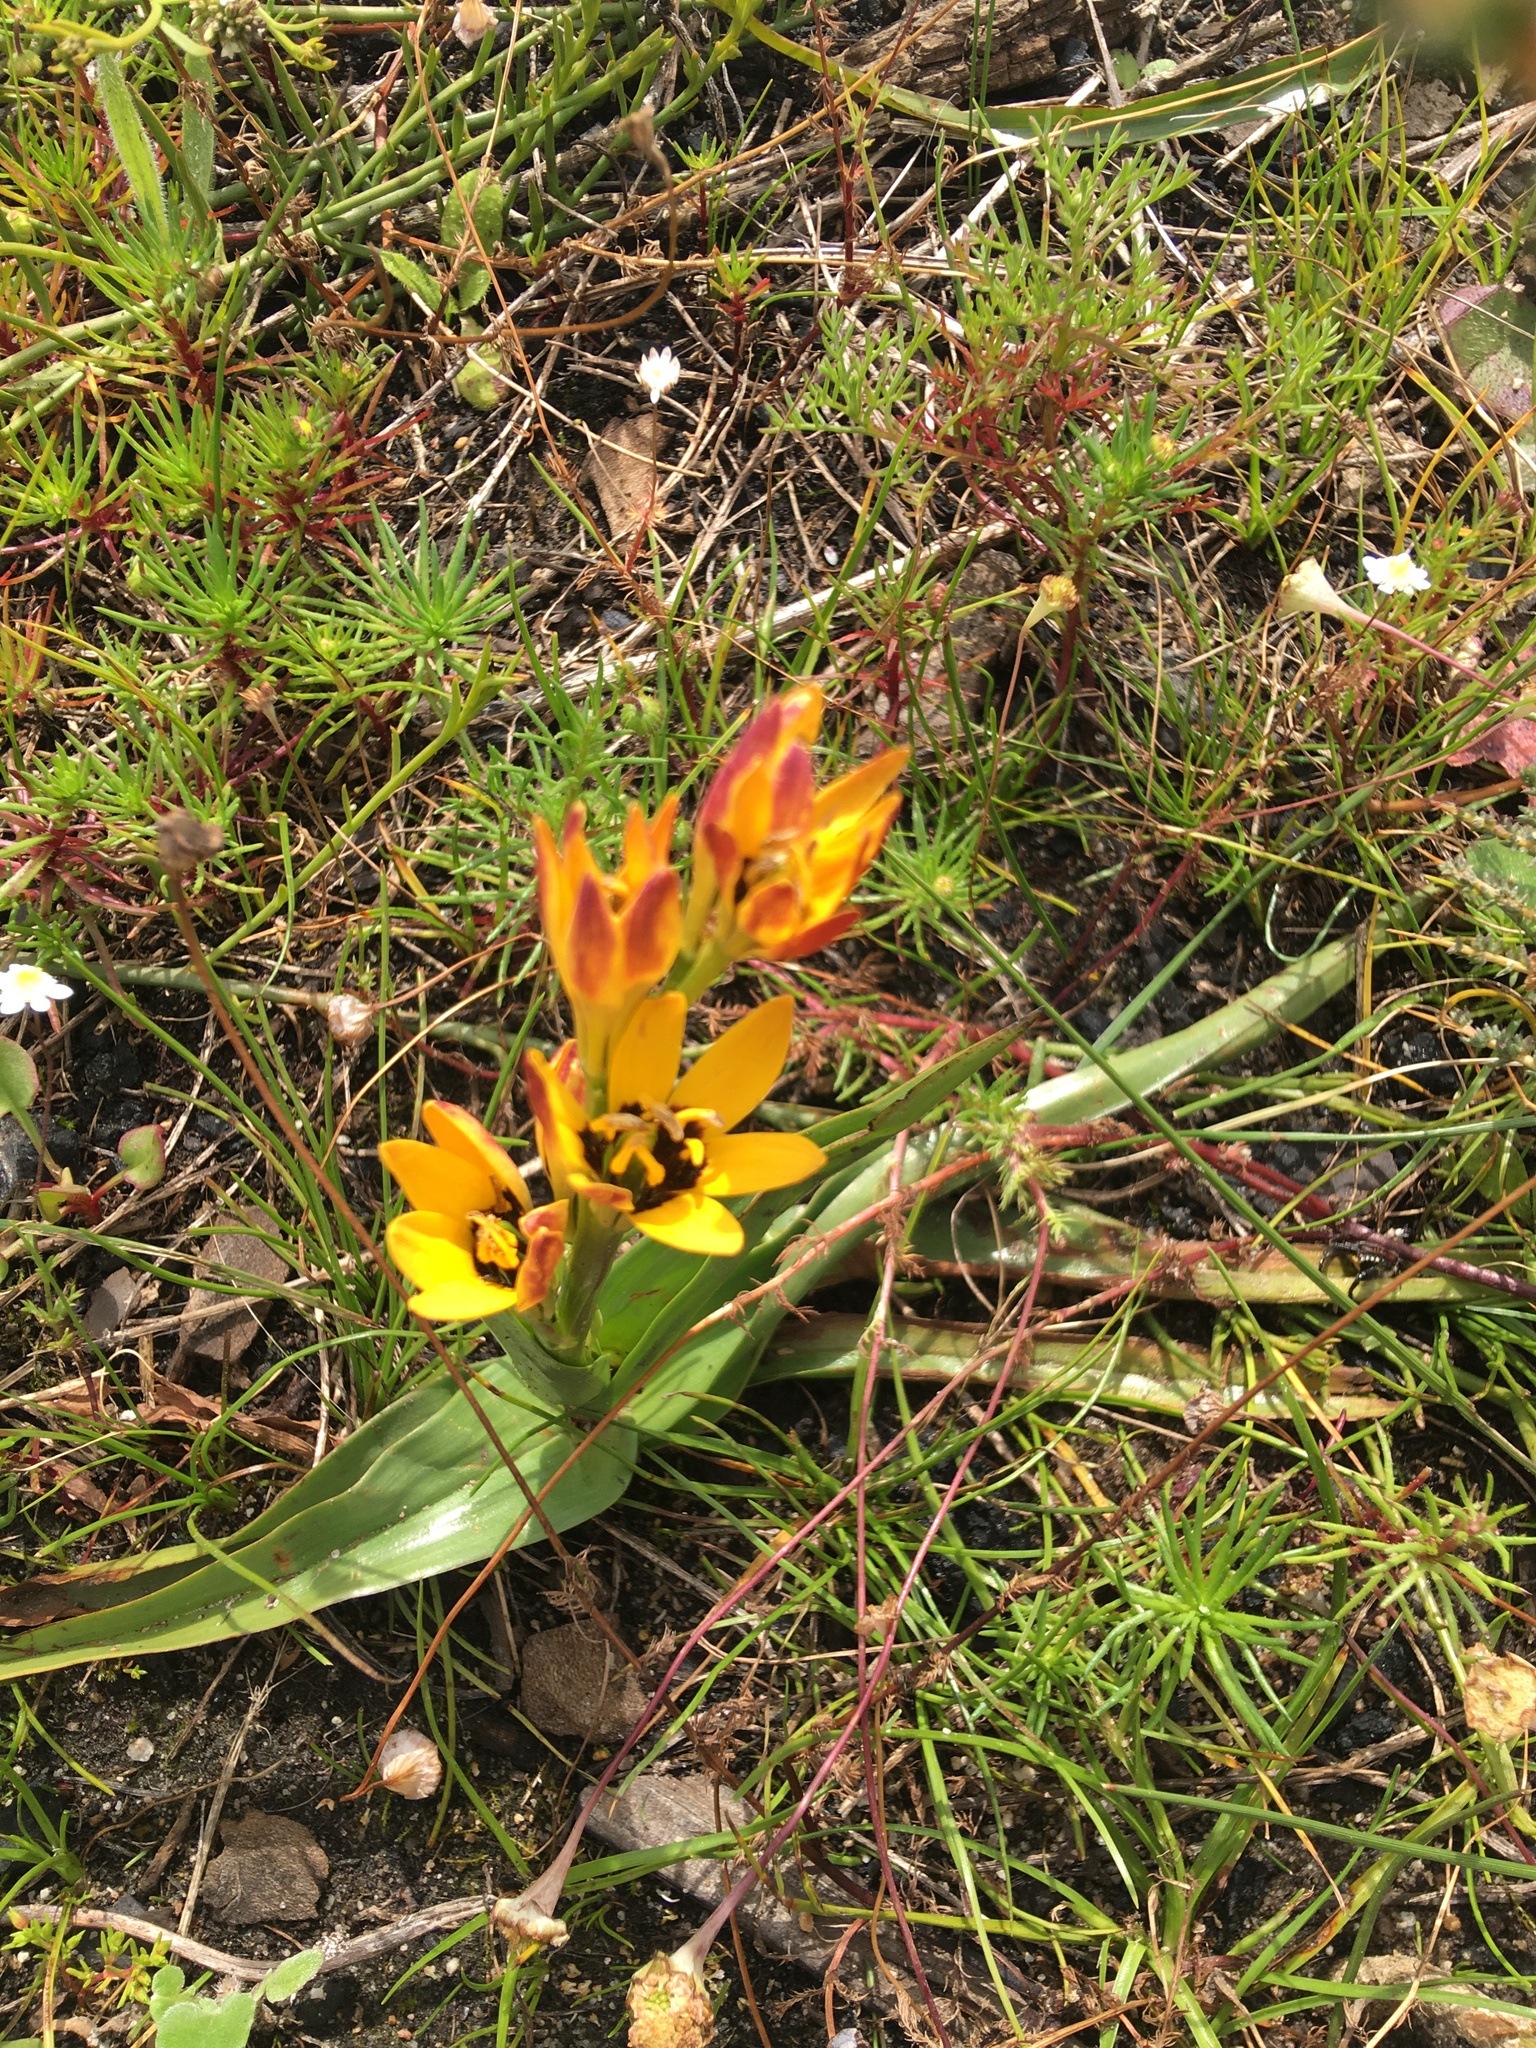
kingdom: Plantae
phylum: Tracheophyta
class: Liliopsida
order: Liliales
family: Colchicaceae
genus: Baeometra
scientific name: Baeometra uniflora
